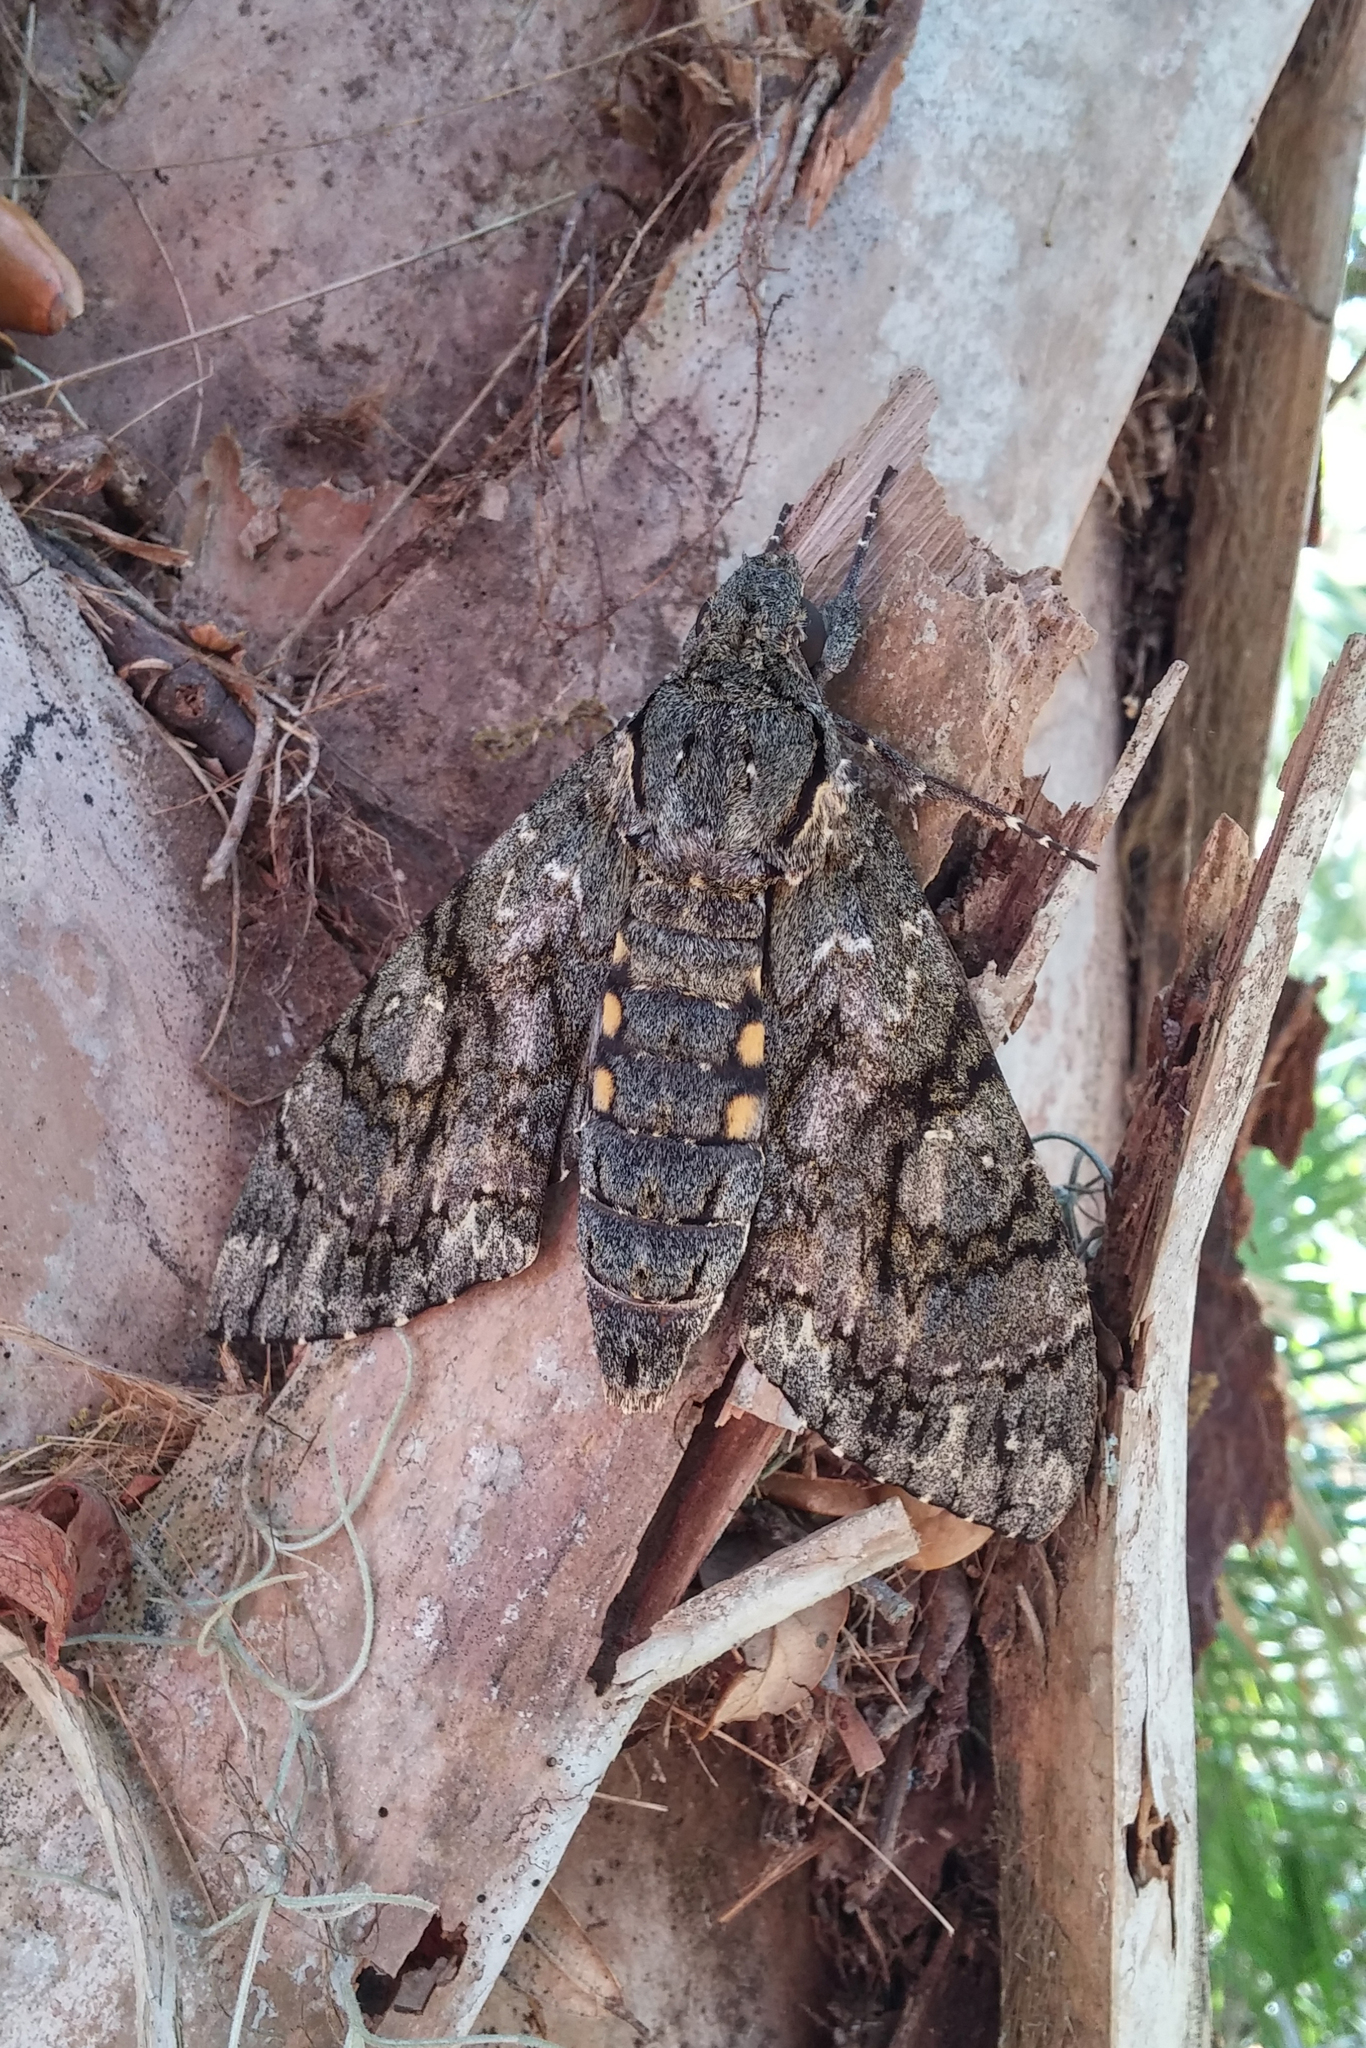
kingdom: Animalia
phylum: Arthropoda
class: Insecta
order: Lepidoptera
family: Sphingidae
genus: Cocytius
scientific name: Cocytius antaeus
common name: Giant sphinx
